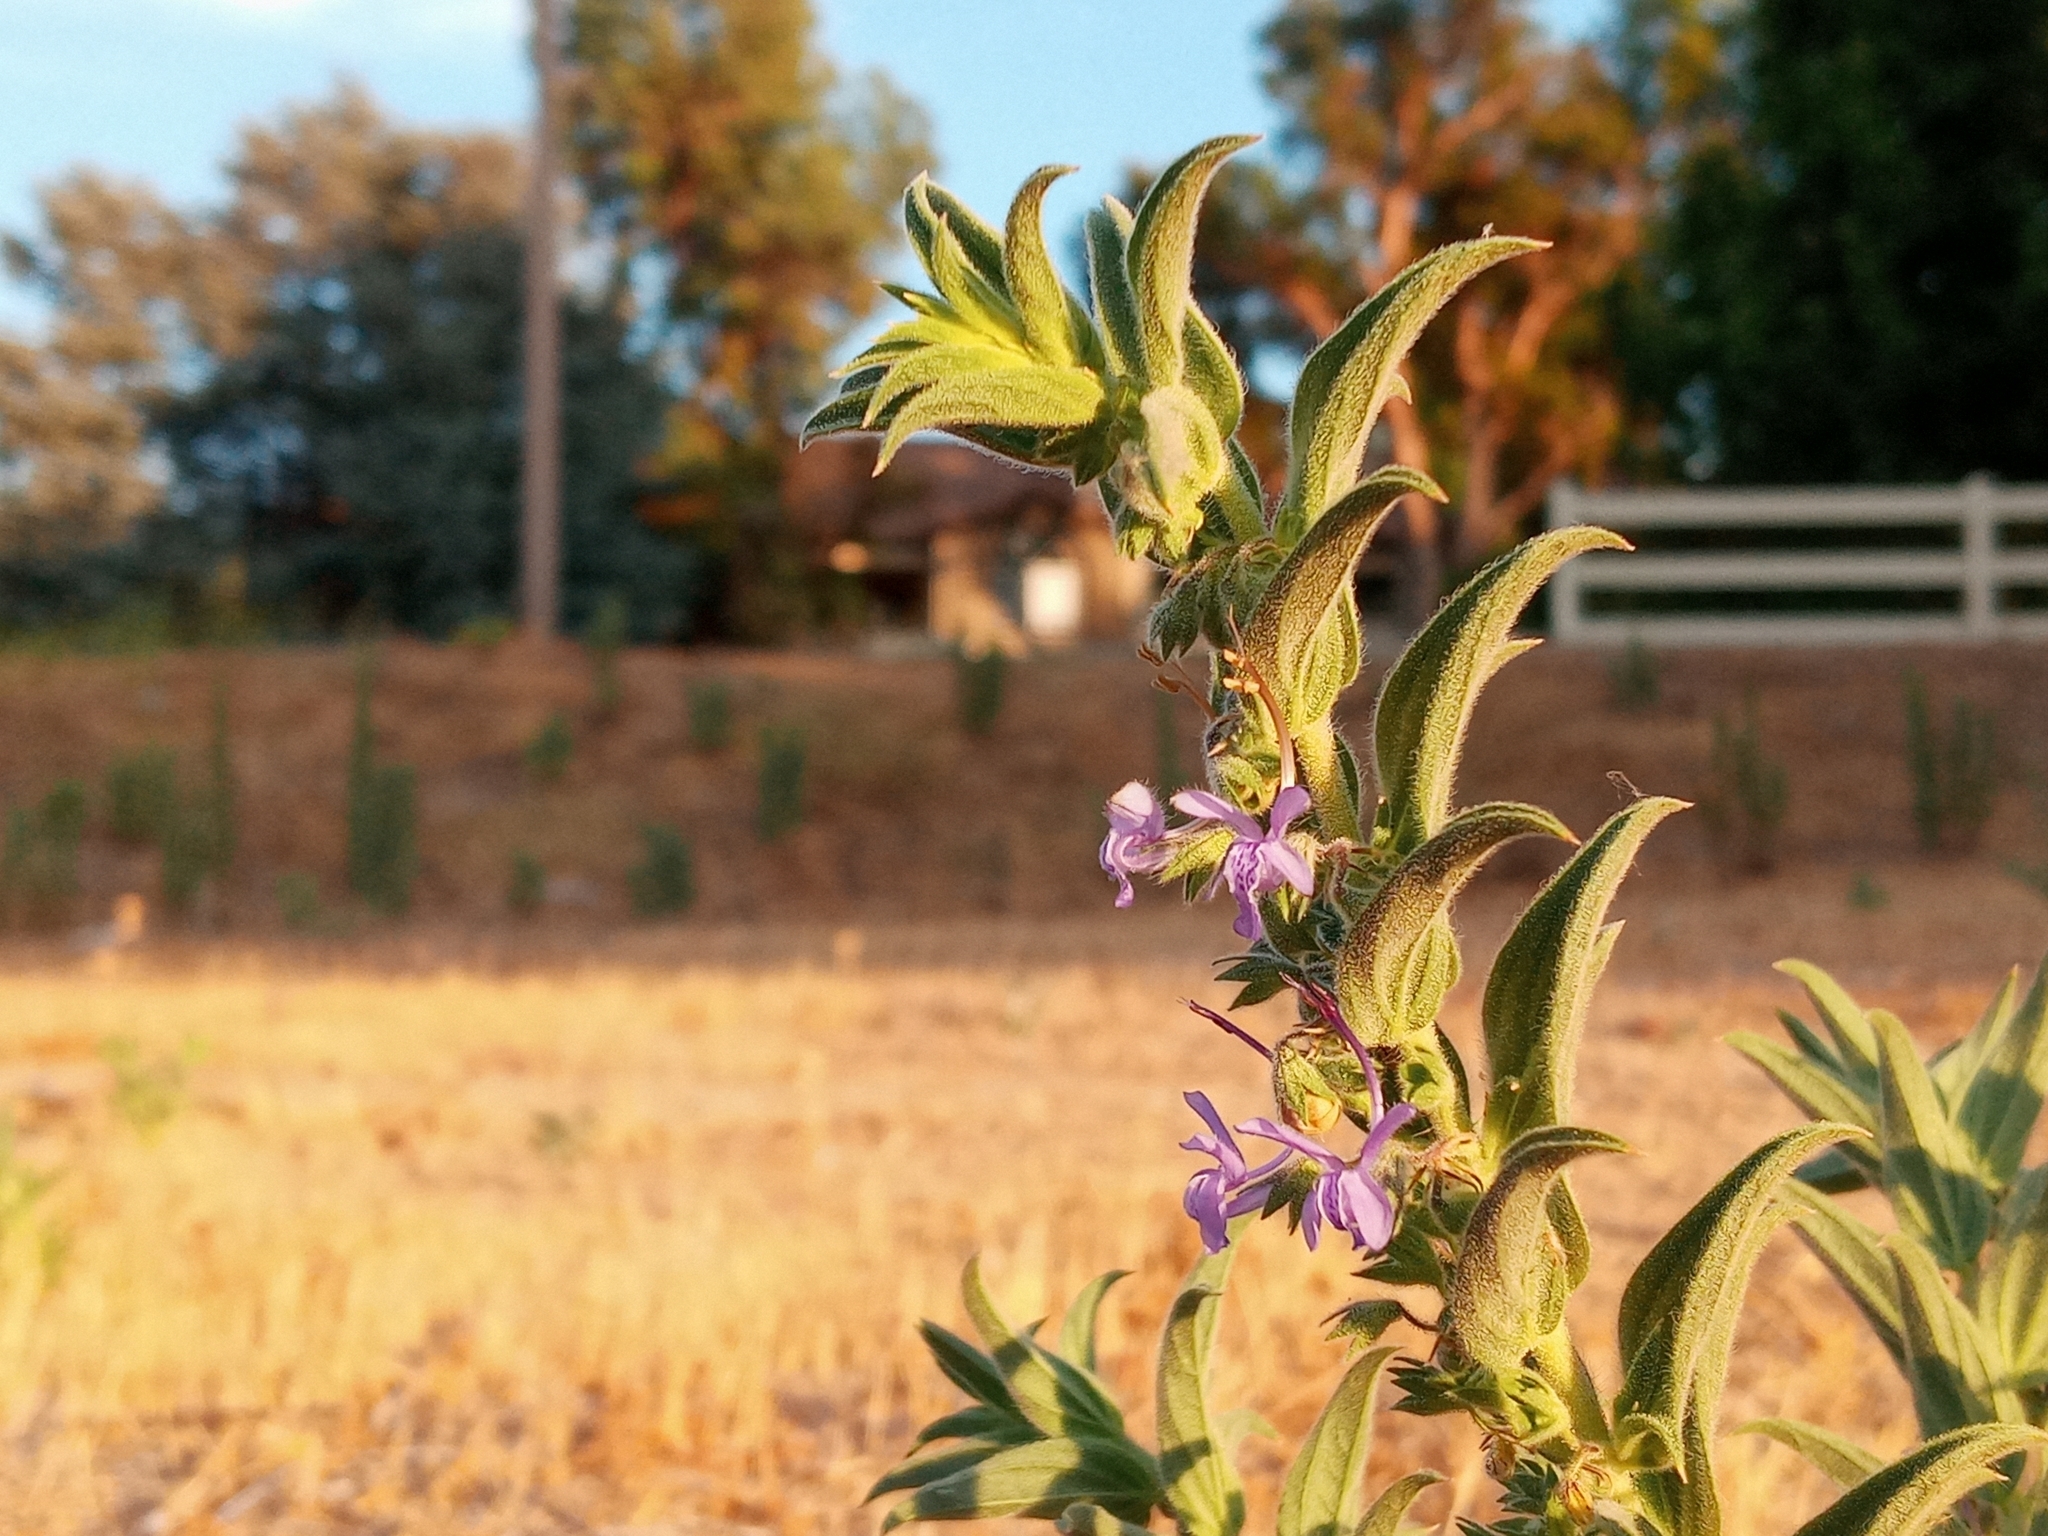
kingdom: Plantae
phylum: Tracheophyta
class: Magnoliopsida
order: Lamiales
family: Lamiaceae
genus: Trichostema
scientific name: Trichostema lanceolatum
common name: Vinegar-weed
